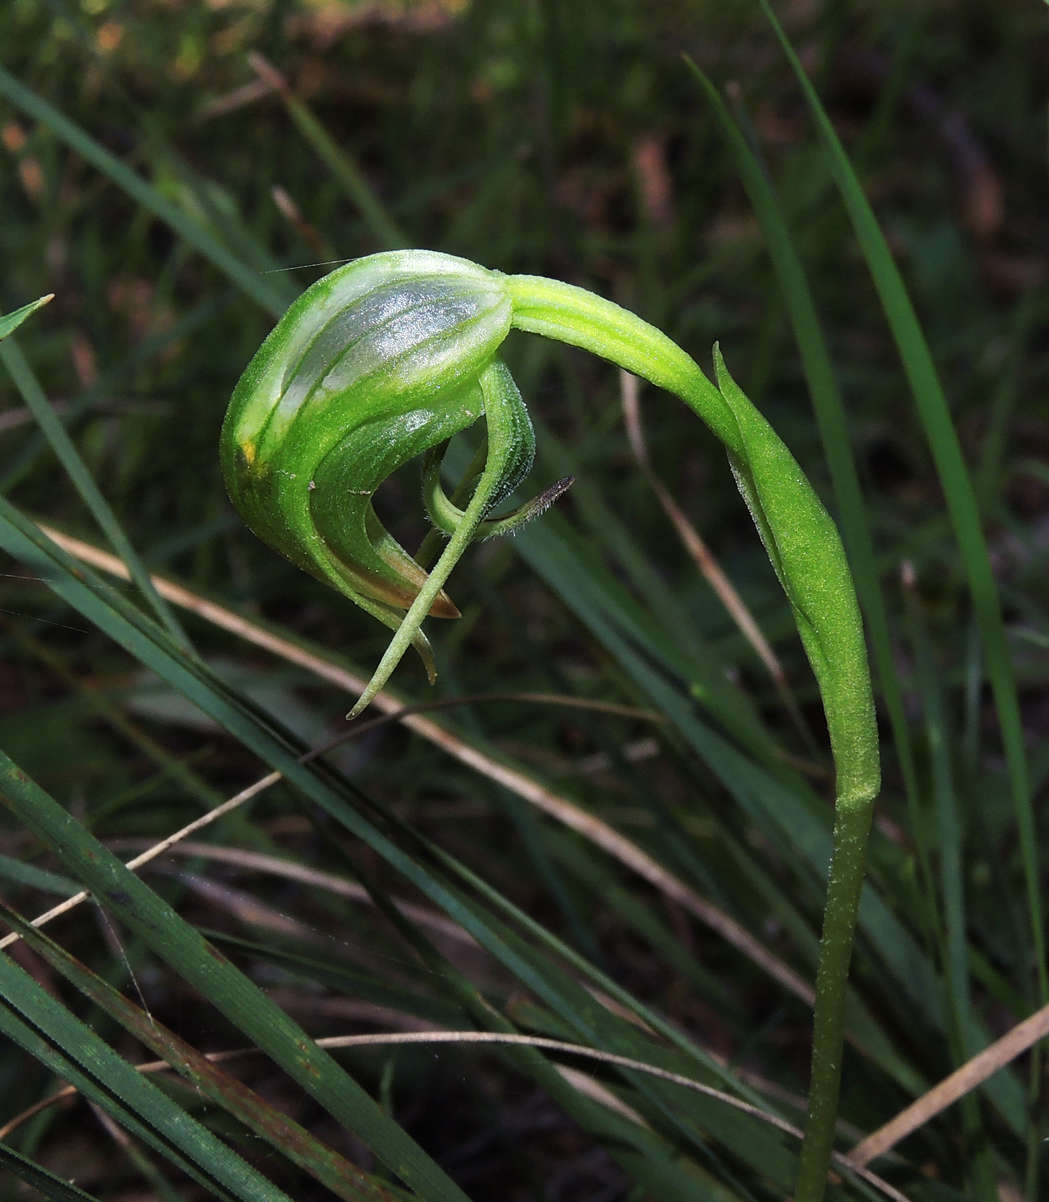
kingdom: Plantae
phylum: Tracheophyta
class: Liliopsida
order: Asparagales
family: Orchidaceae
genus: Pterostylis
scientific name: Pterostylis nutans
